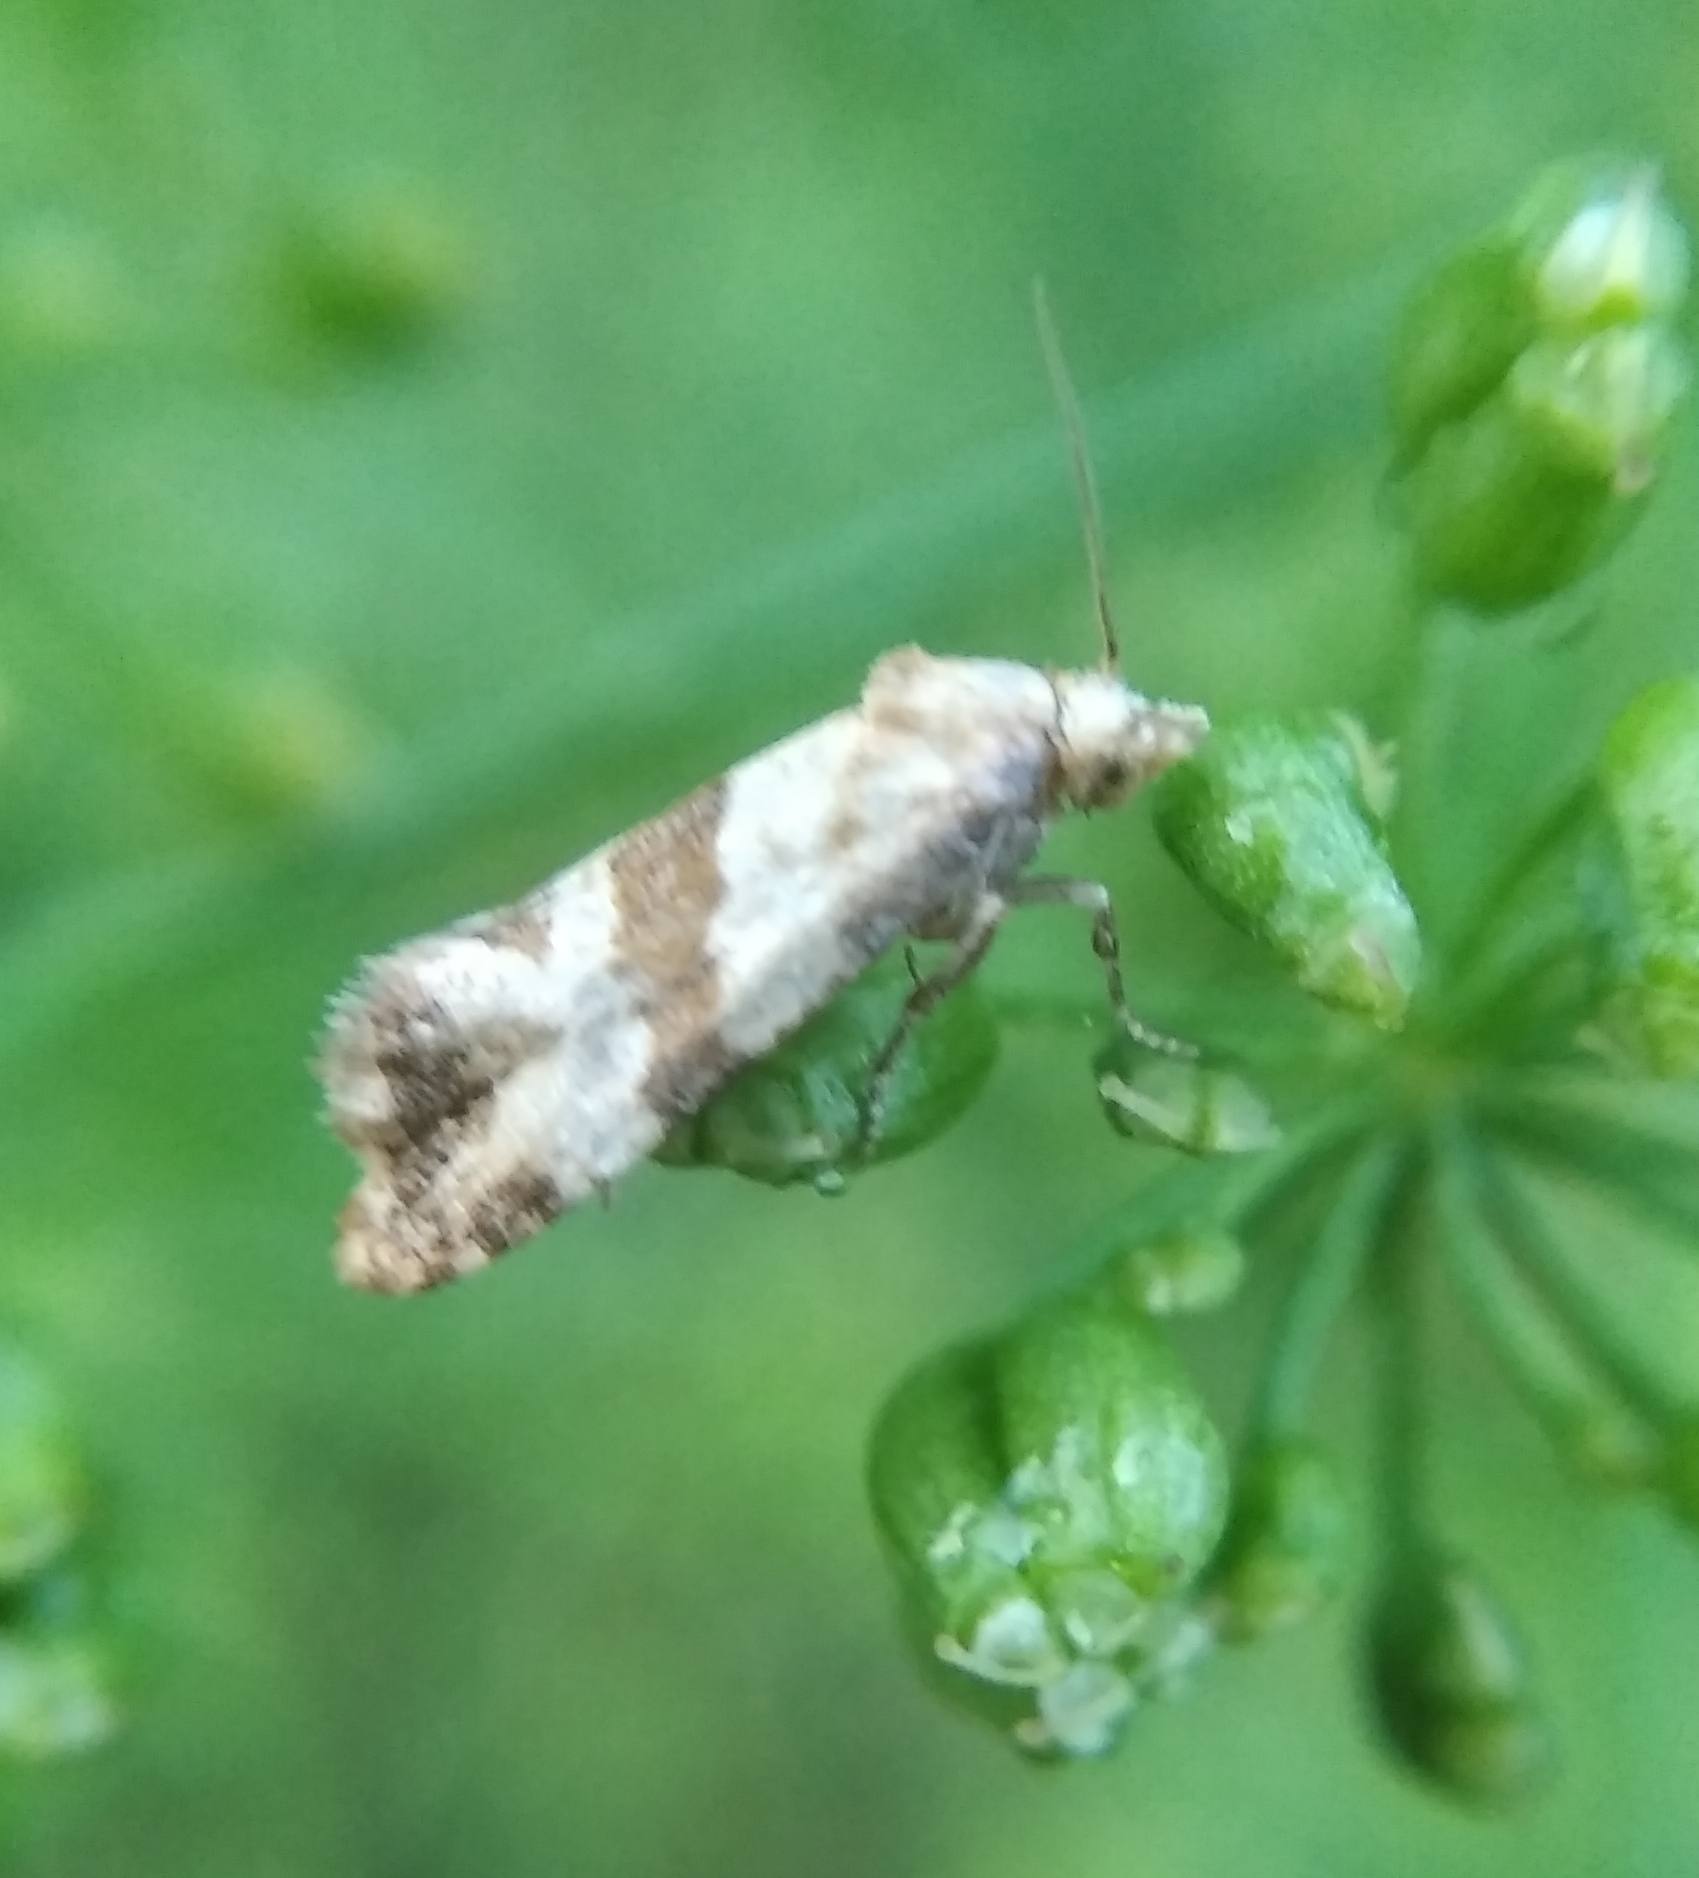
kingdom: Animalia
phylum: Arthropoda
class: Insecta
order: Lepidoptera
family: Tortricidae
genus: Phalonidia
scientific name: Phalonidia contractana
